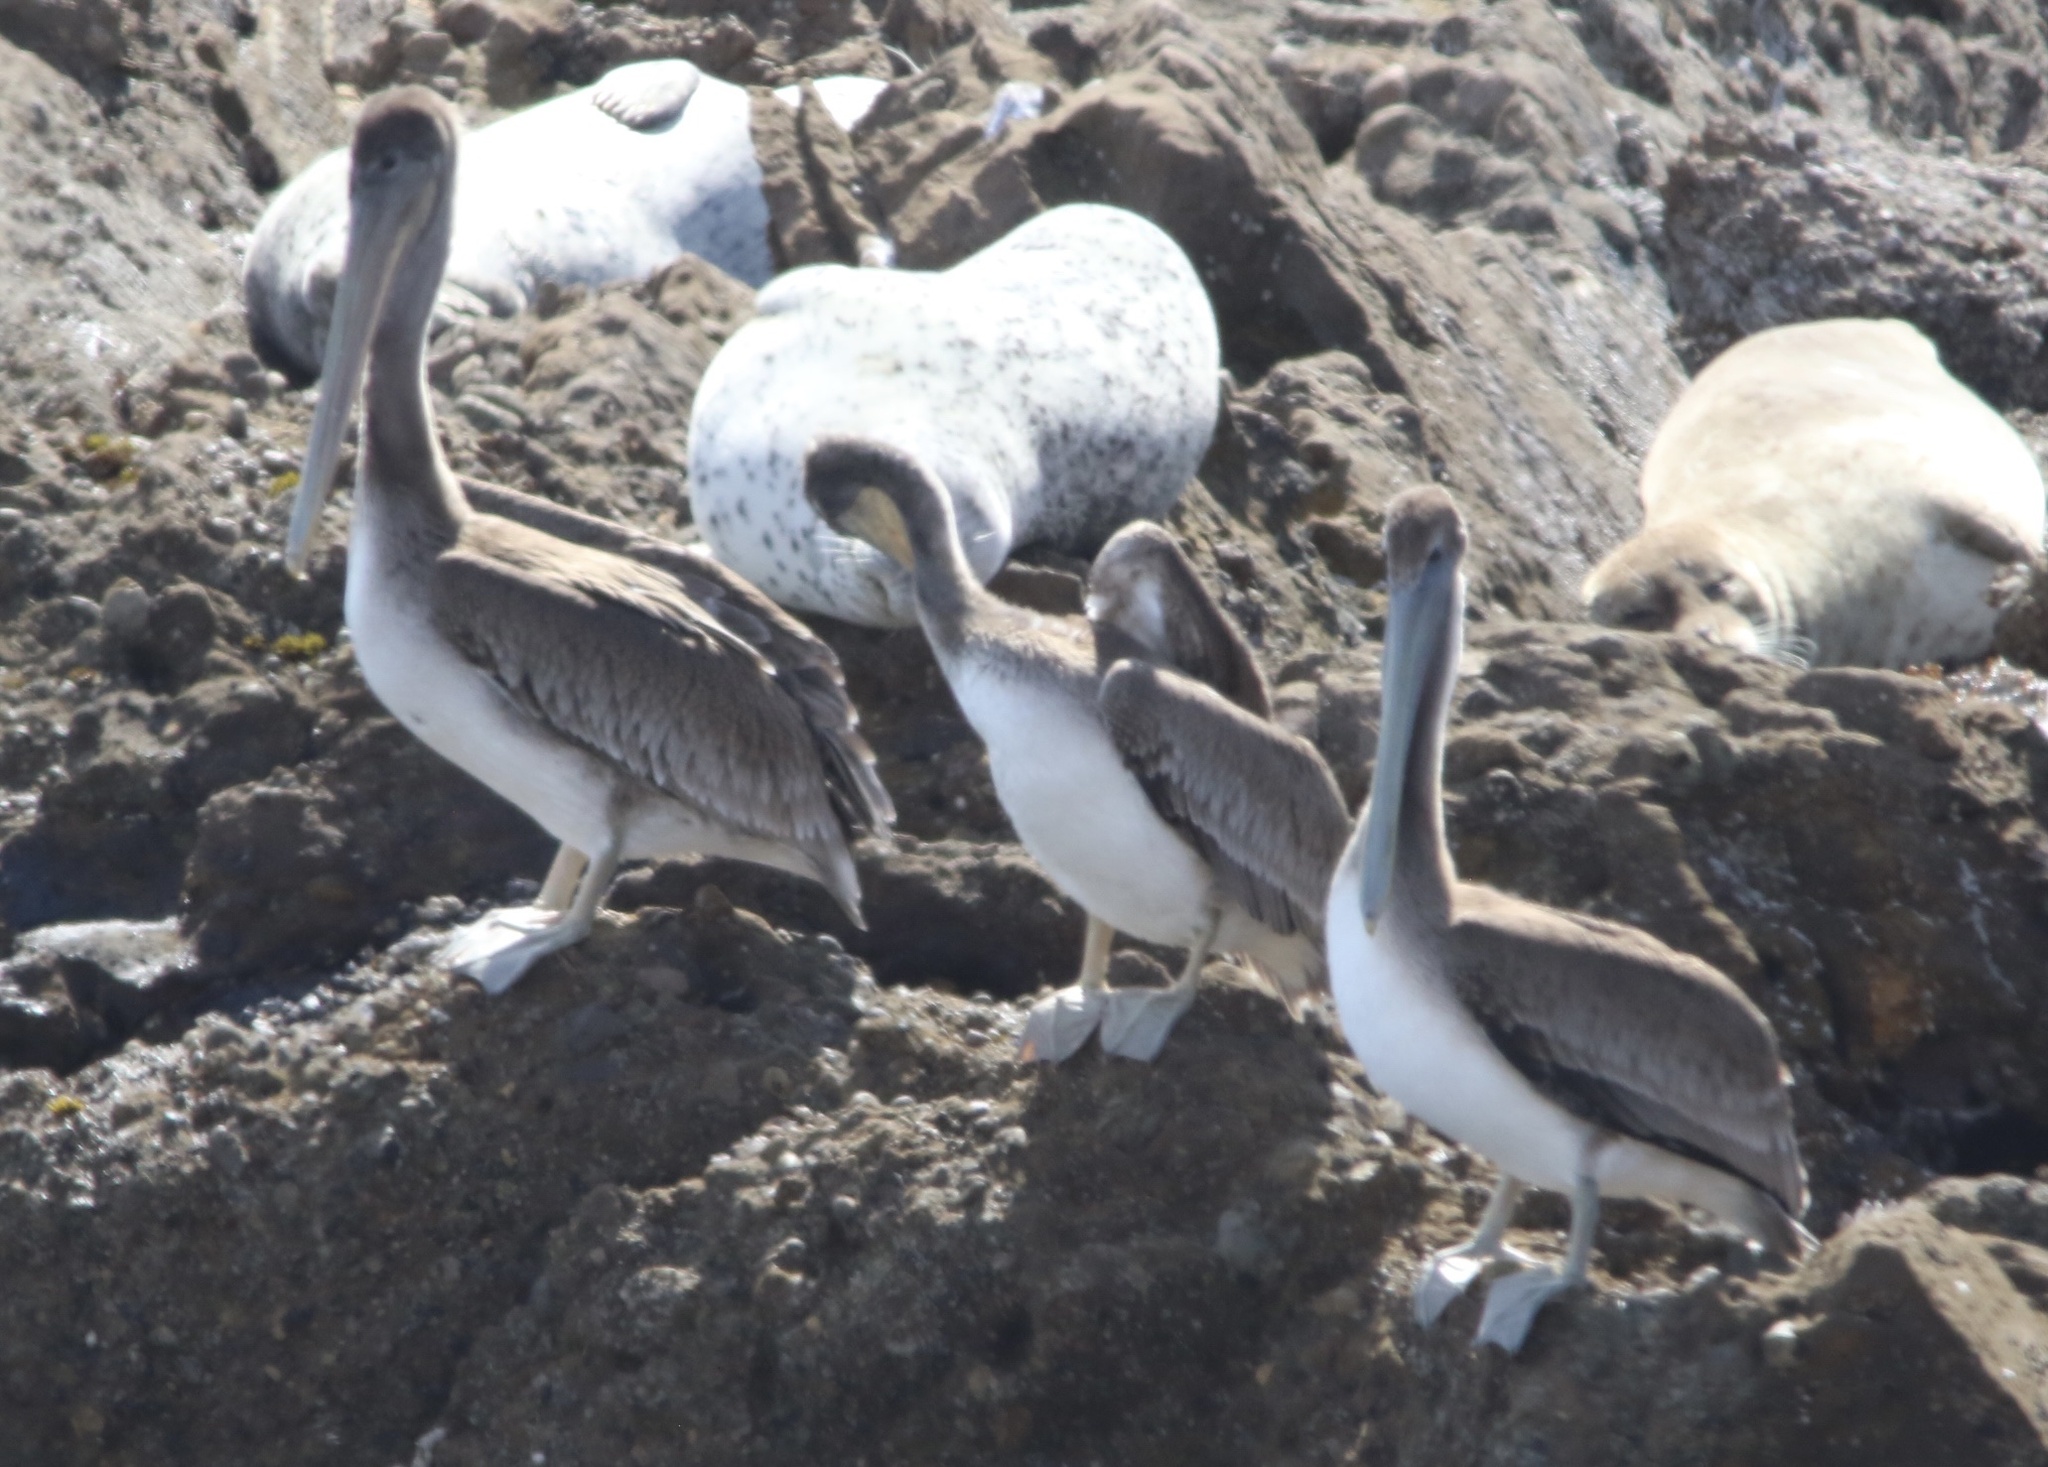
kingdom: Animalia
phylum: Chordata
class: Aves
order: Pelecaniformes
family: Pelecanidae
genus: Pelecanus
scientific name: Pelecanus occidentalis
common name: Brown pelican
